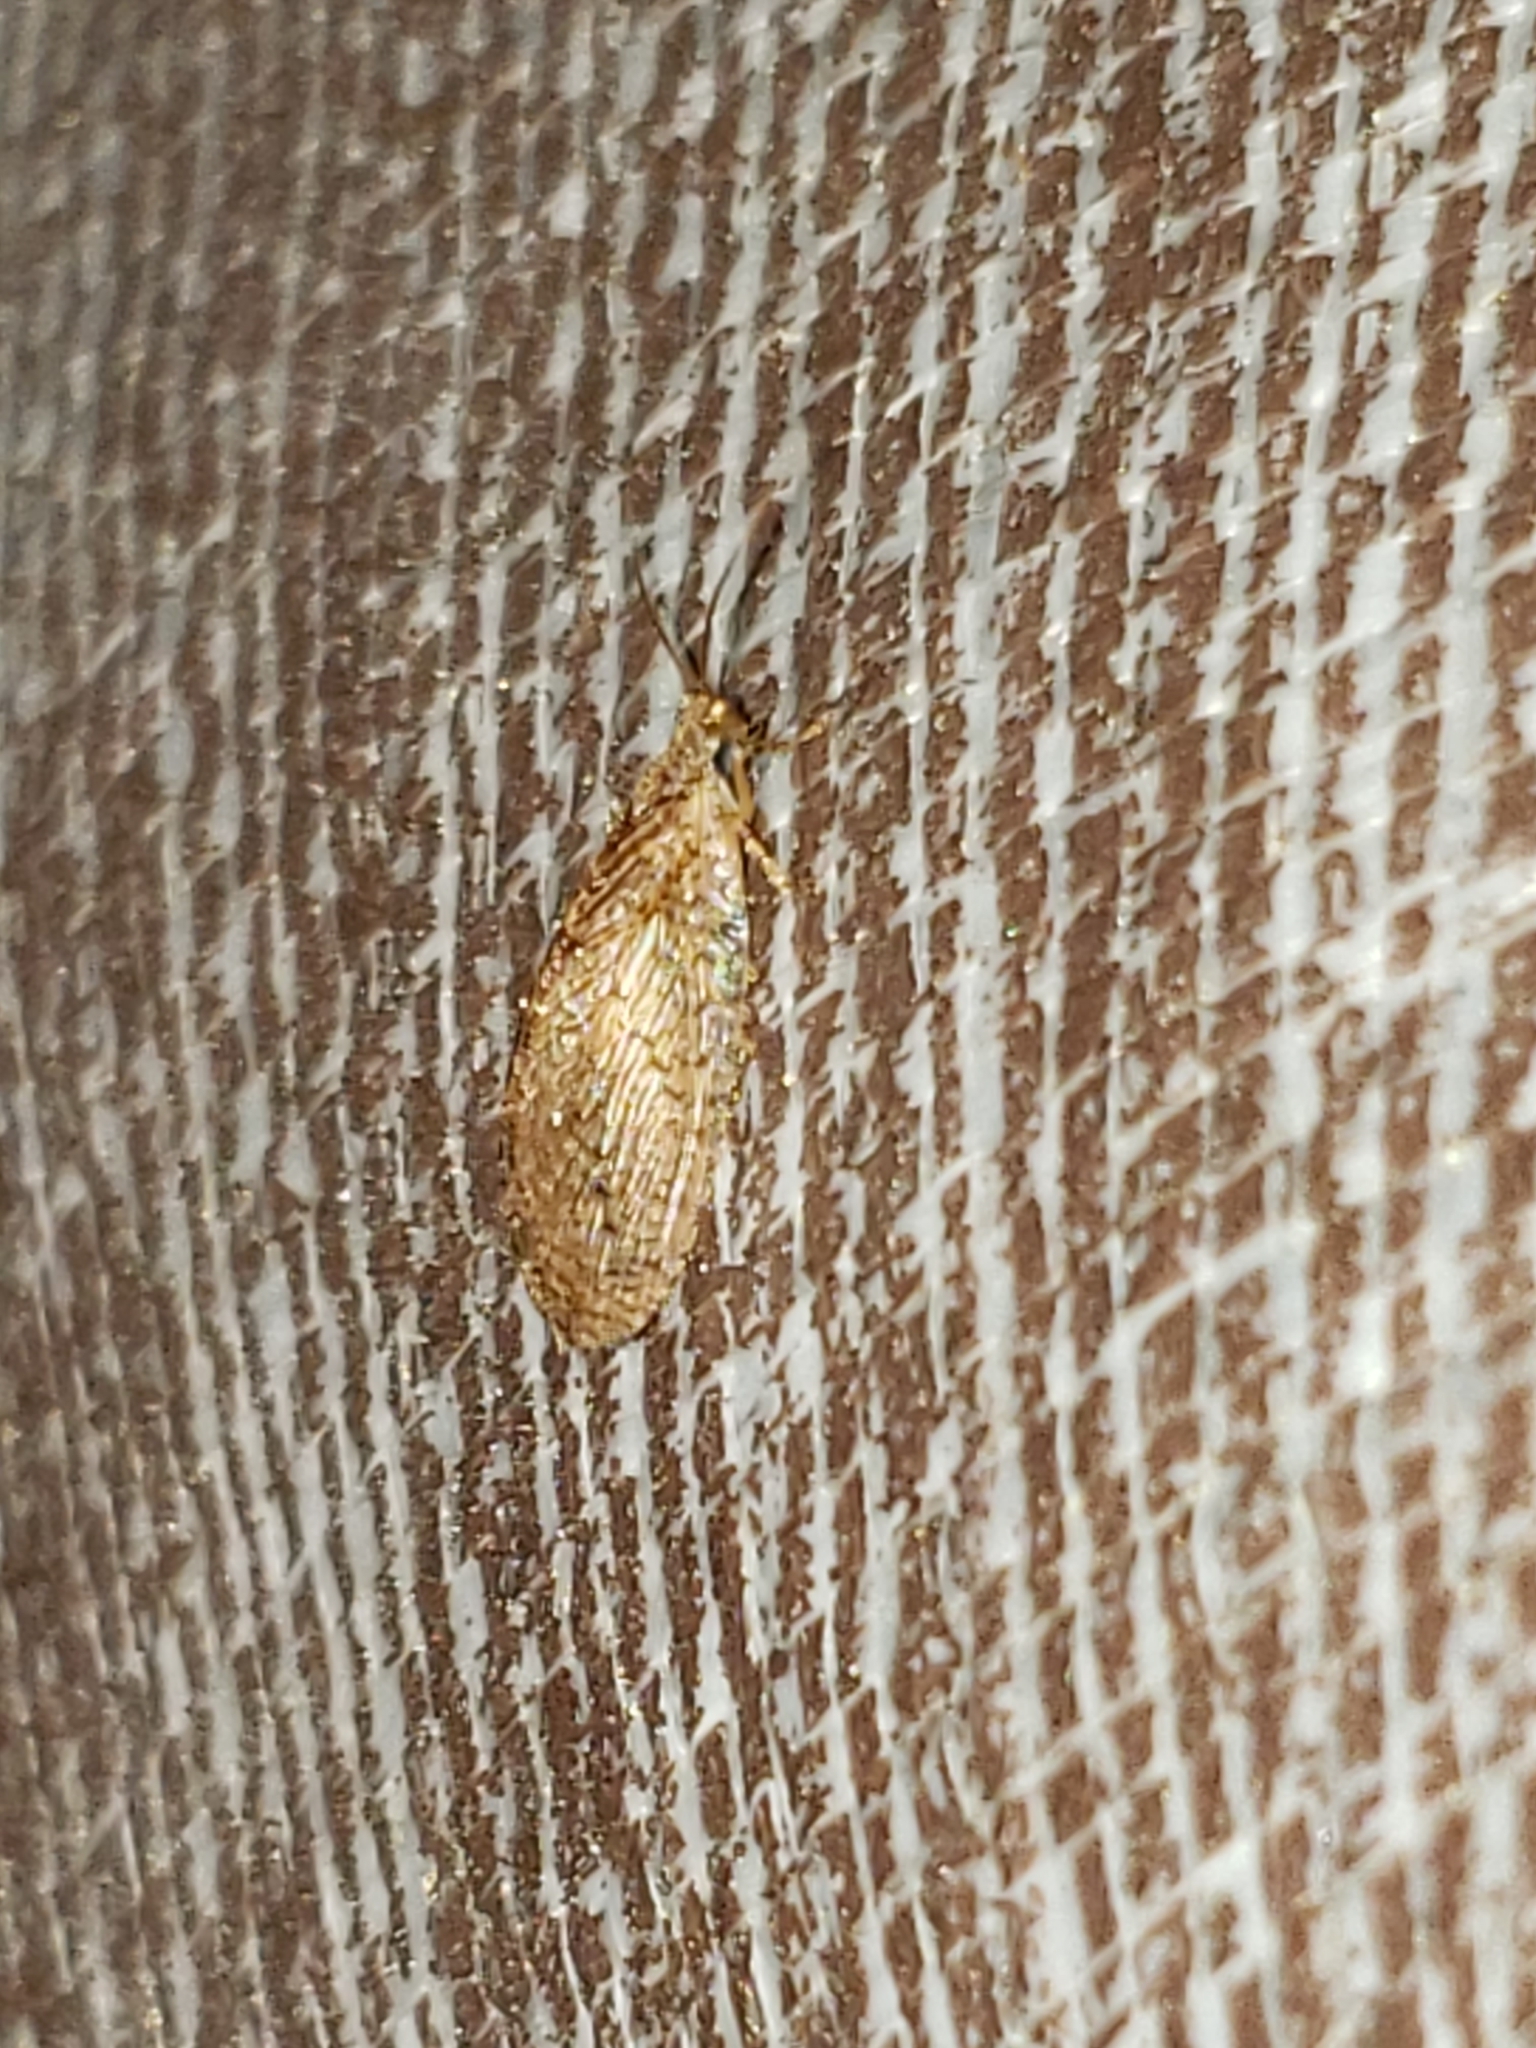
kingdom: Animalia
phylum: Arthropoda
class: Insecta
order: Neuroptera
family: Hemerobiidae
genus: Micromus
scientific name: Micromus posticus
